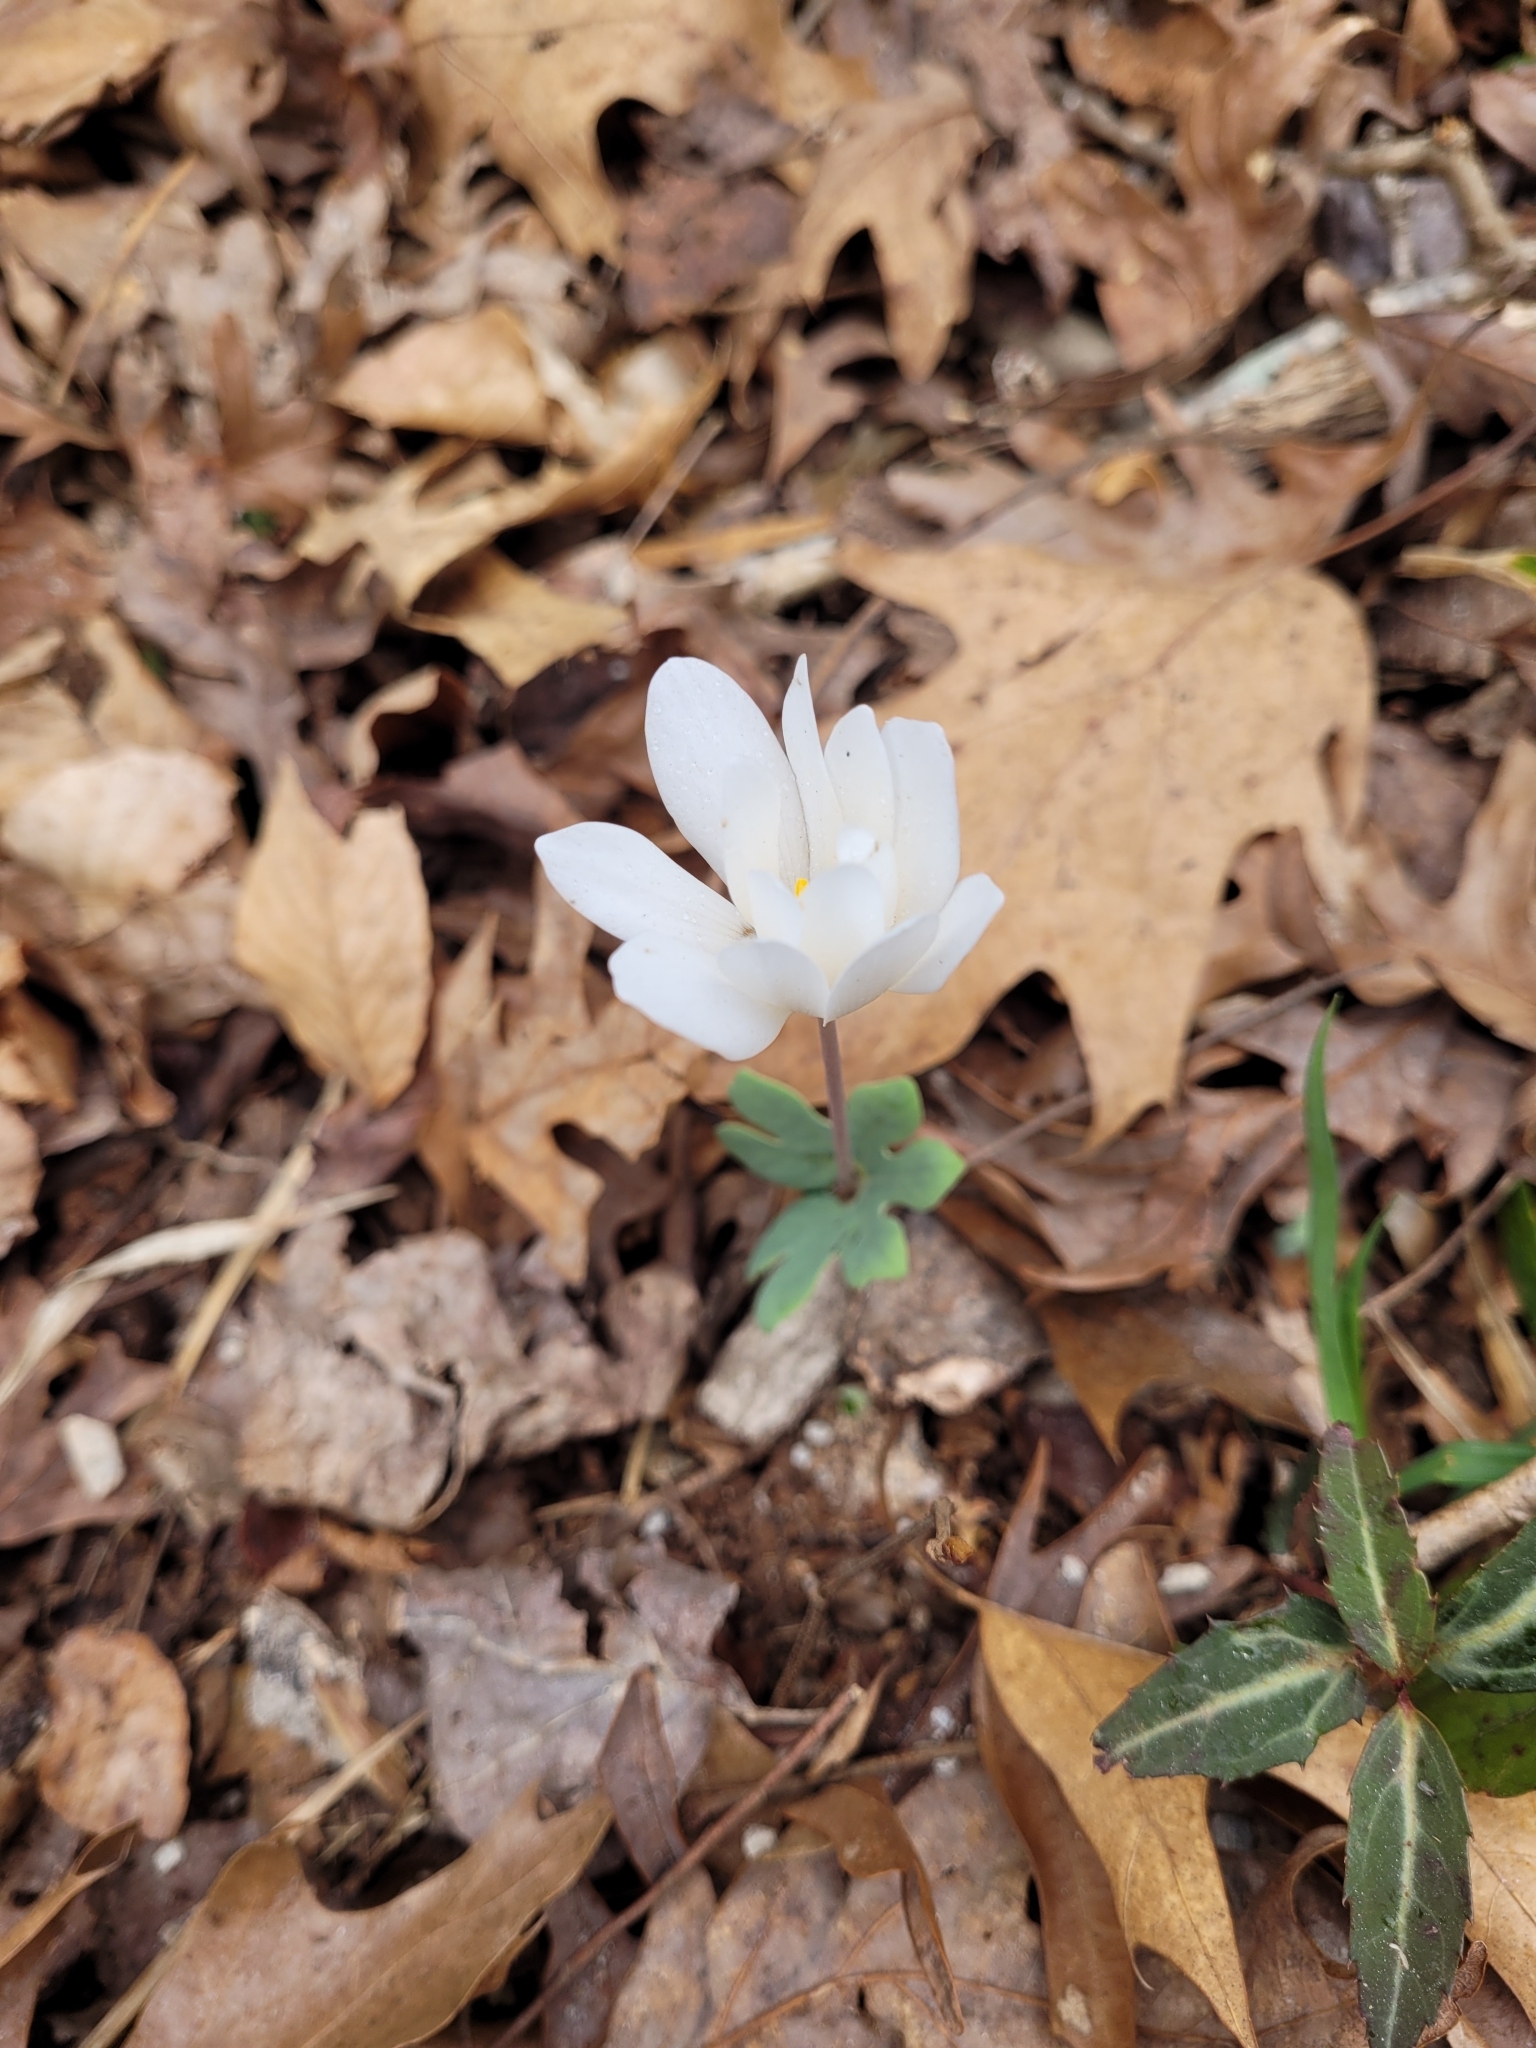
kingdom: Plantae
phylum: Tracheophyta
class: Magnoliopsida
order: Ranunculales
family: Papaveraceae
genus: Sanguinaria
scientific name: Sanguinaria canadensis
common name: Bloodroot
